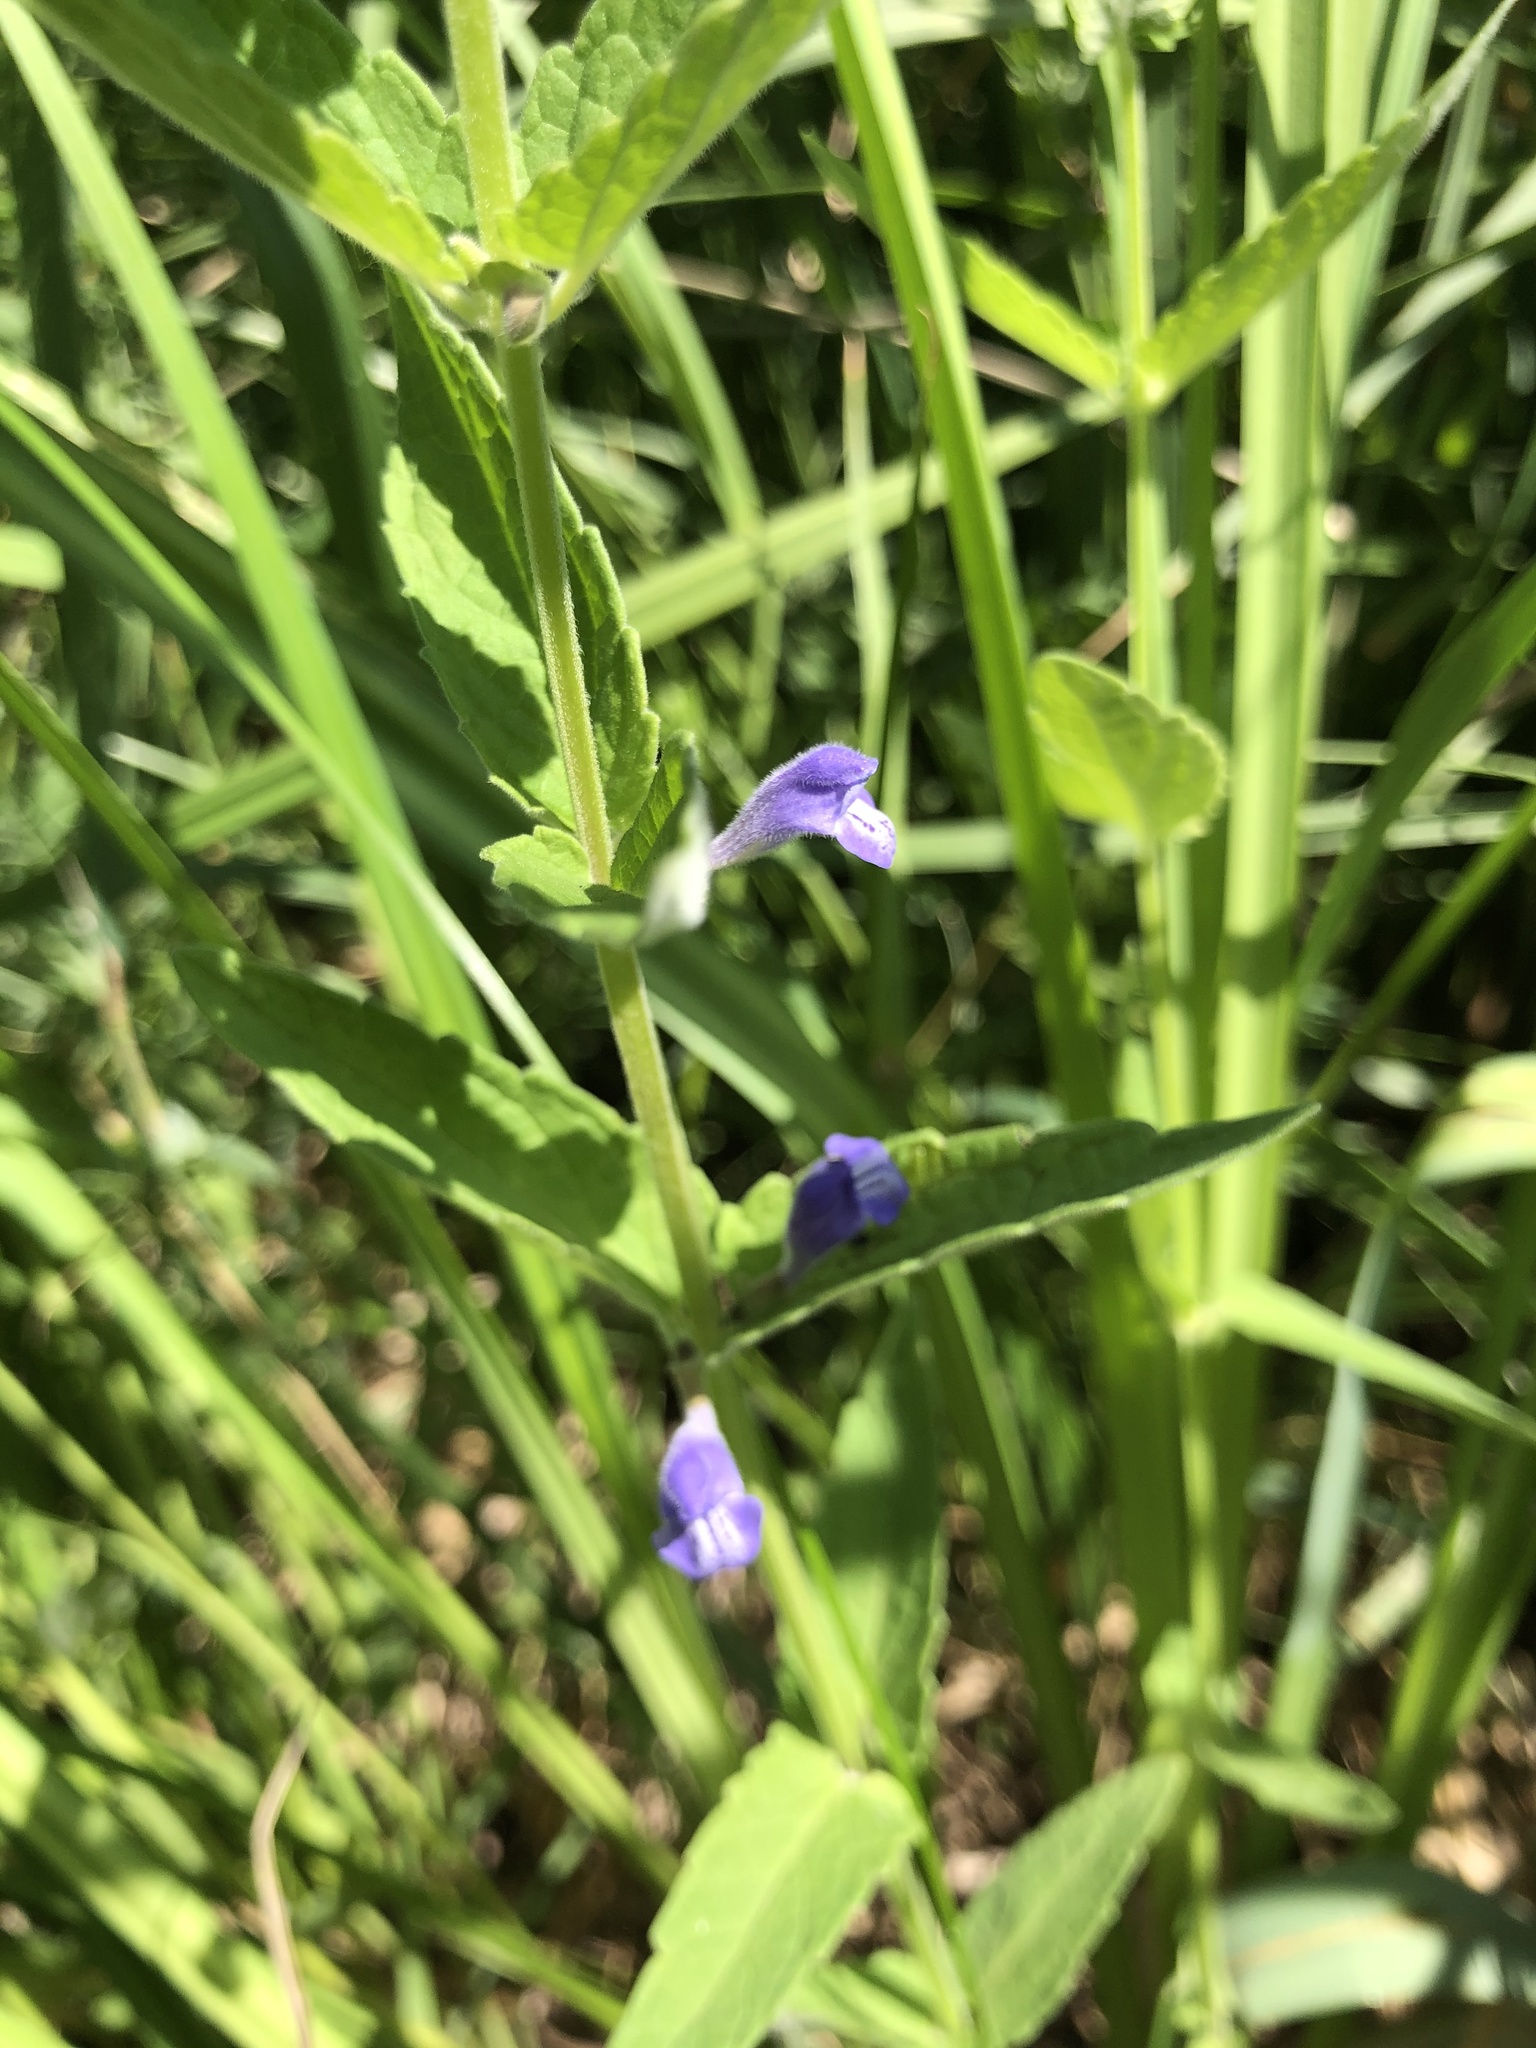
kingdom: Plantae
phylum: Tracheophyta
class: Magnoliopsida
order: Lamiales
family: Lamiaceae
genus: Scutellaria
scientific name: Scutellaria galericulata
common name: Skullcap
